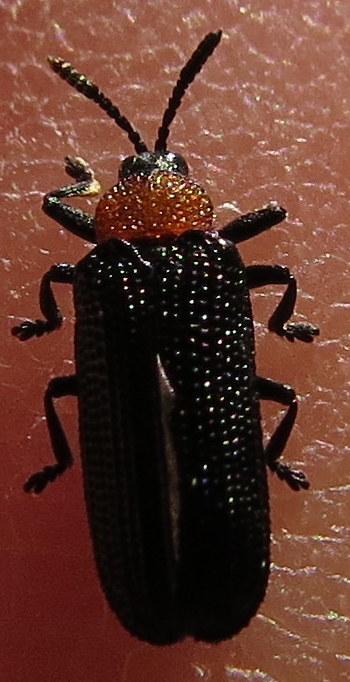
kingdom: Animalia
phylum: Arthropoda
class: Insecta
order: Coleoptera
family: Chrysomelidae
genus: Chalepus
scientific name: Chalepus walshii
